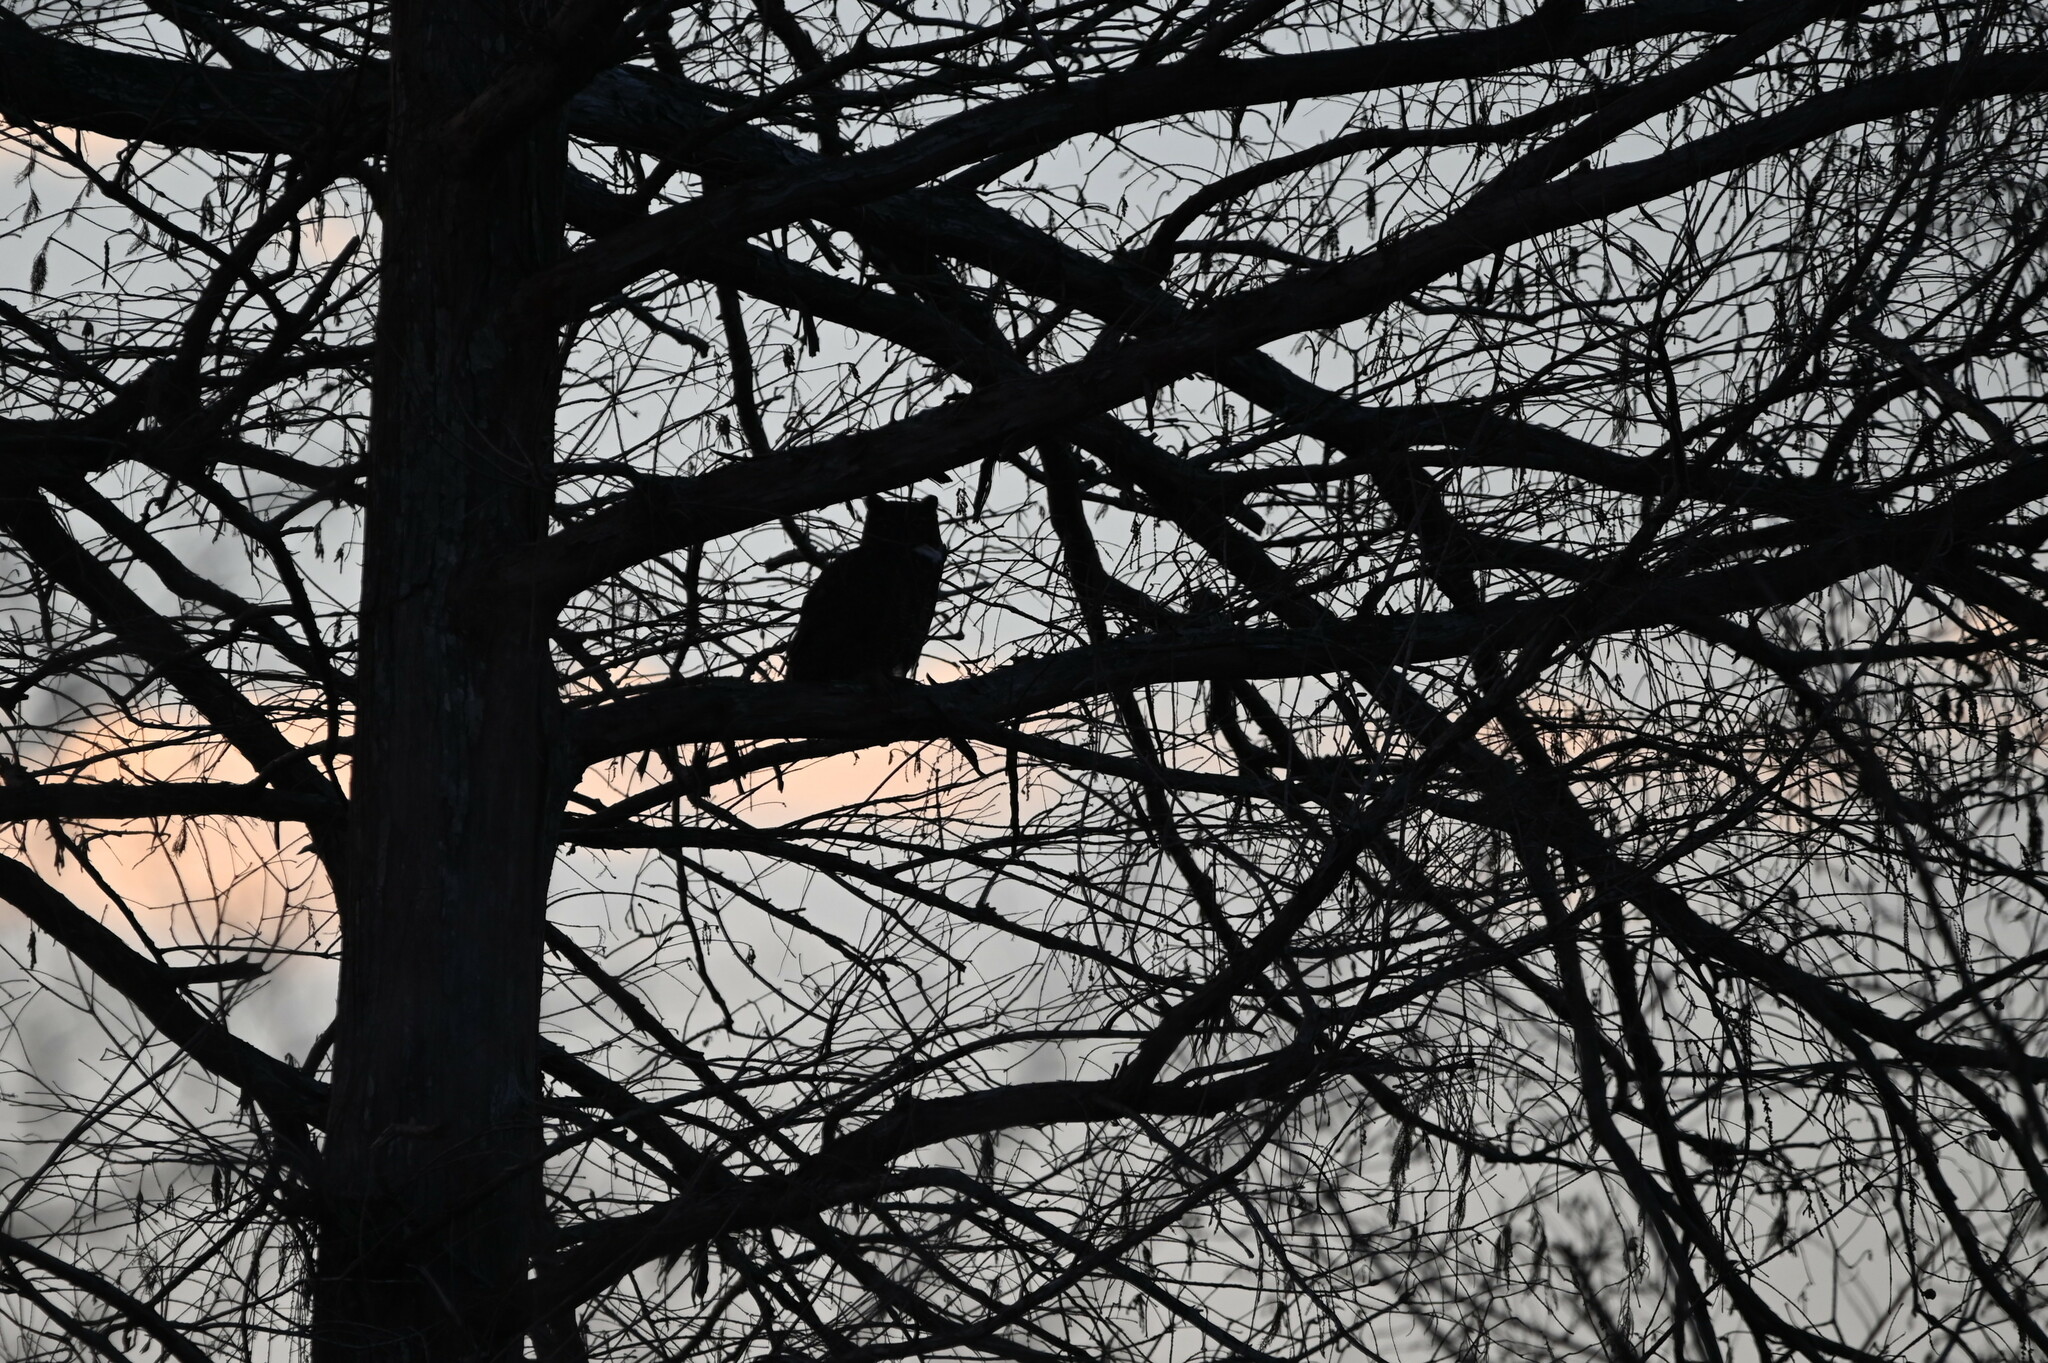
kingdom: Animalia
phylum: Chordata
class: Aves
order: Strigiformes
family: Strigidae
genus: Bubo
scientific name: Bubo virginianus
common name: Great horned owl
